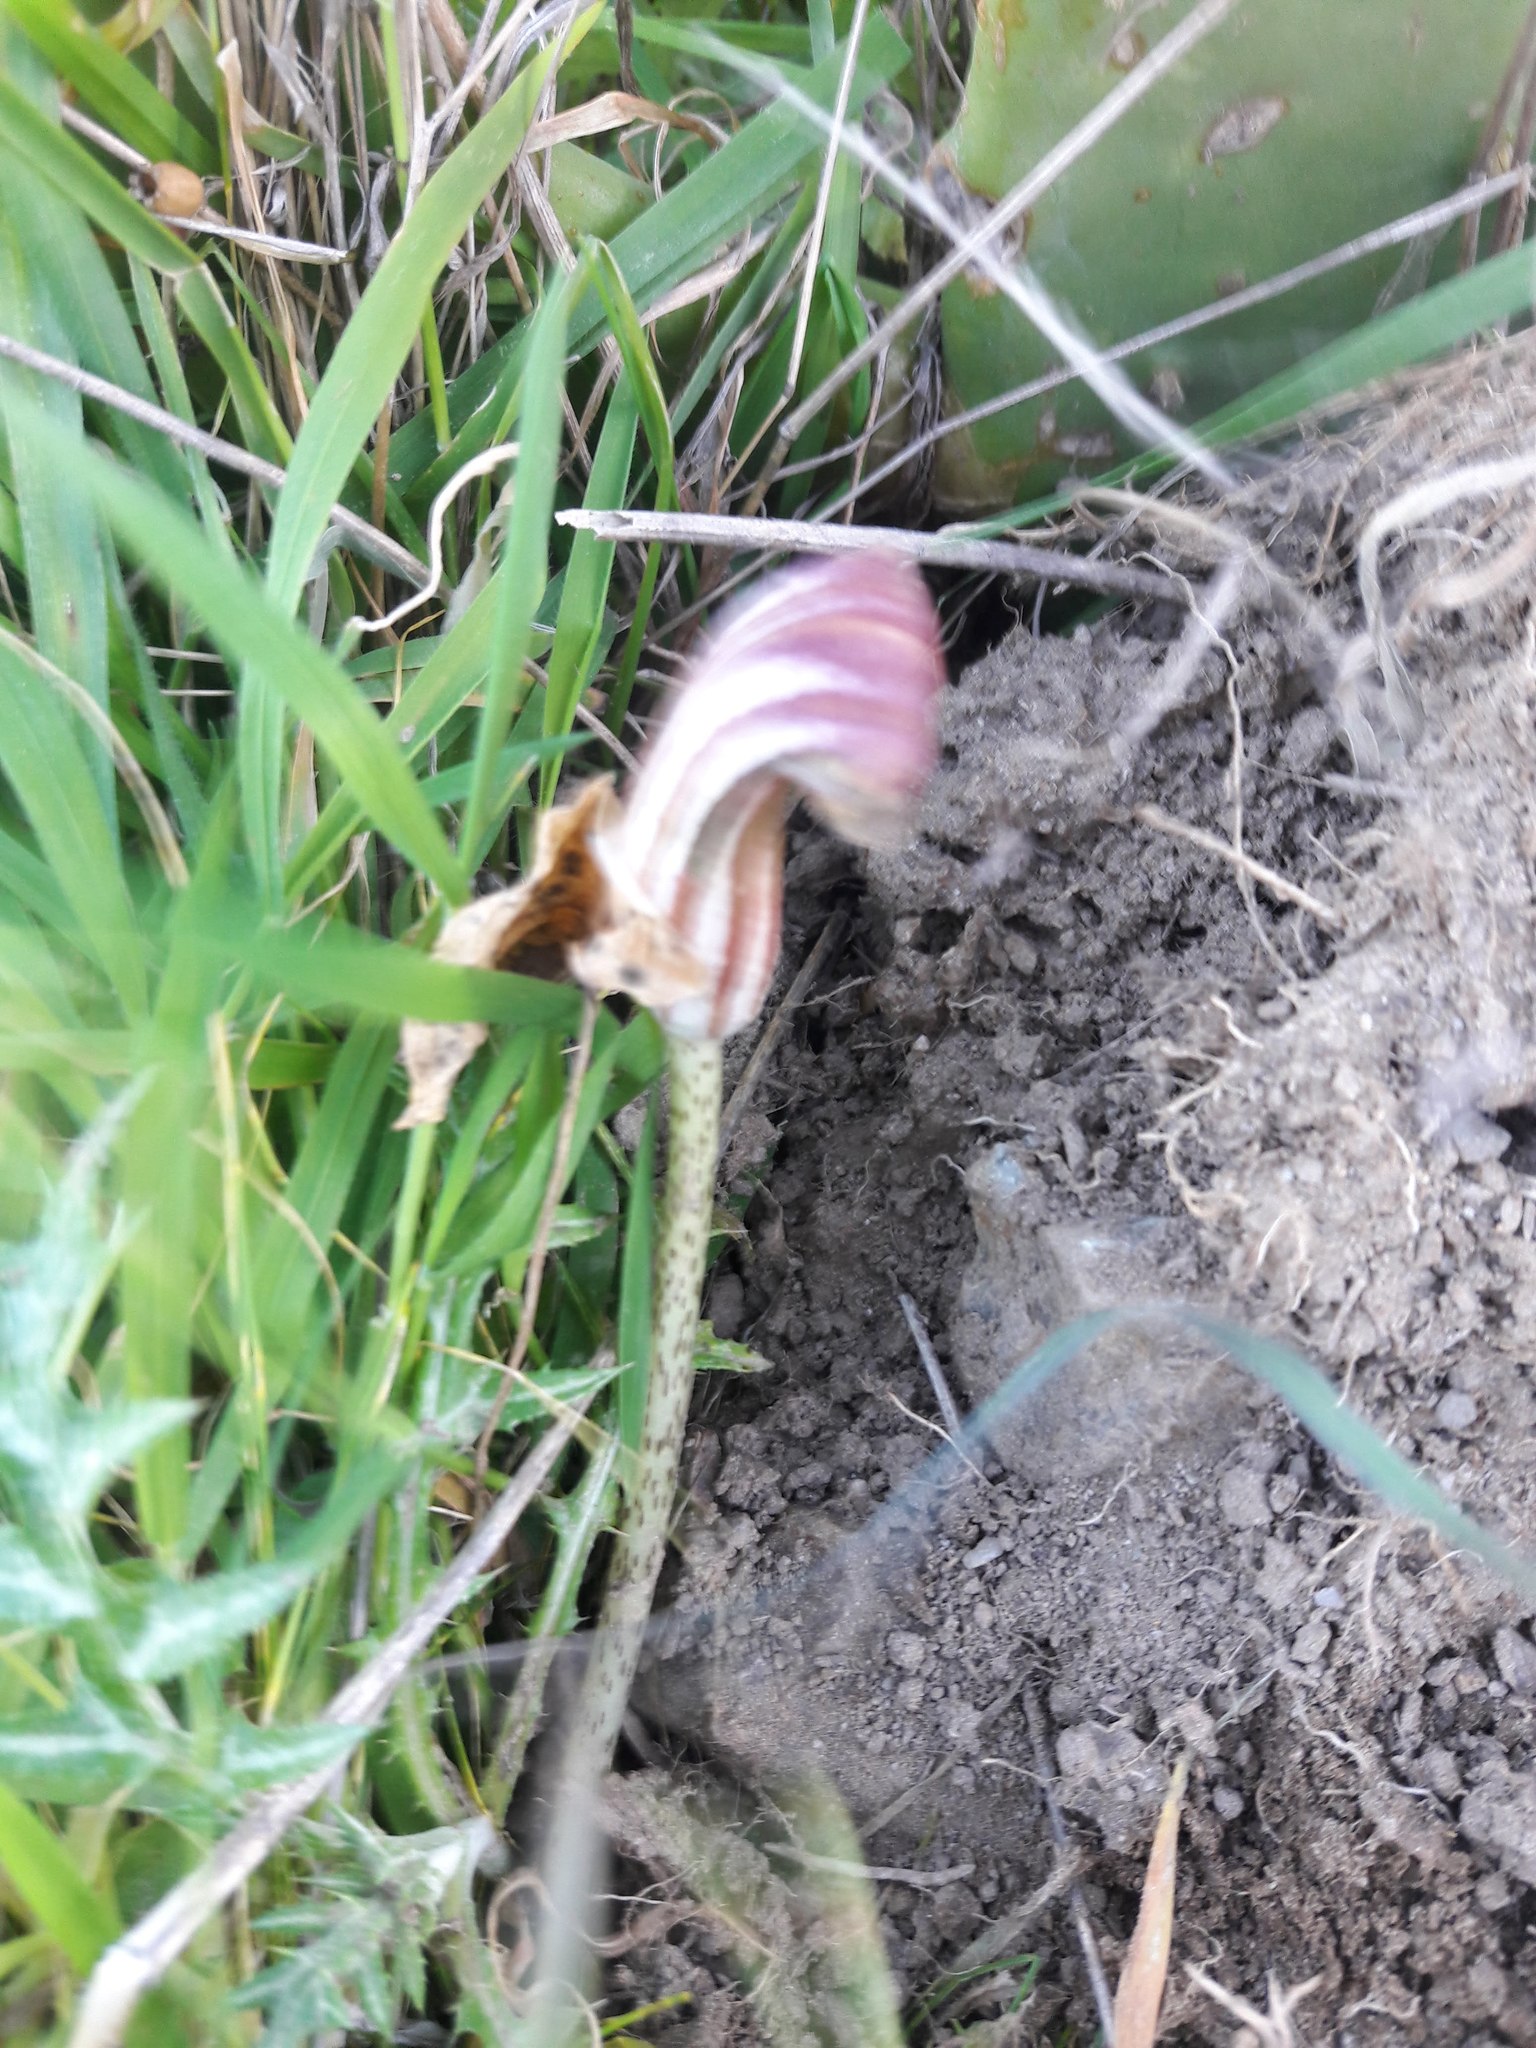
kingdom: Plantae
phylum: Tracheophyta
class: Liliopsida
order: Alismatales
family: Araceae
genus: Arisarum
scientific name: Arisarum vulgare
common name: Common arisarum
